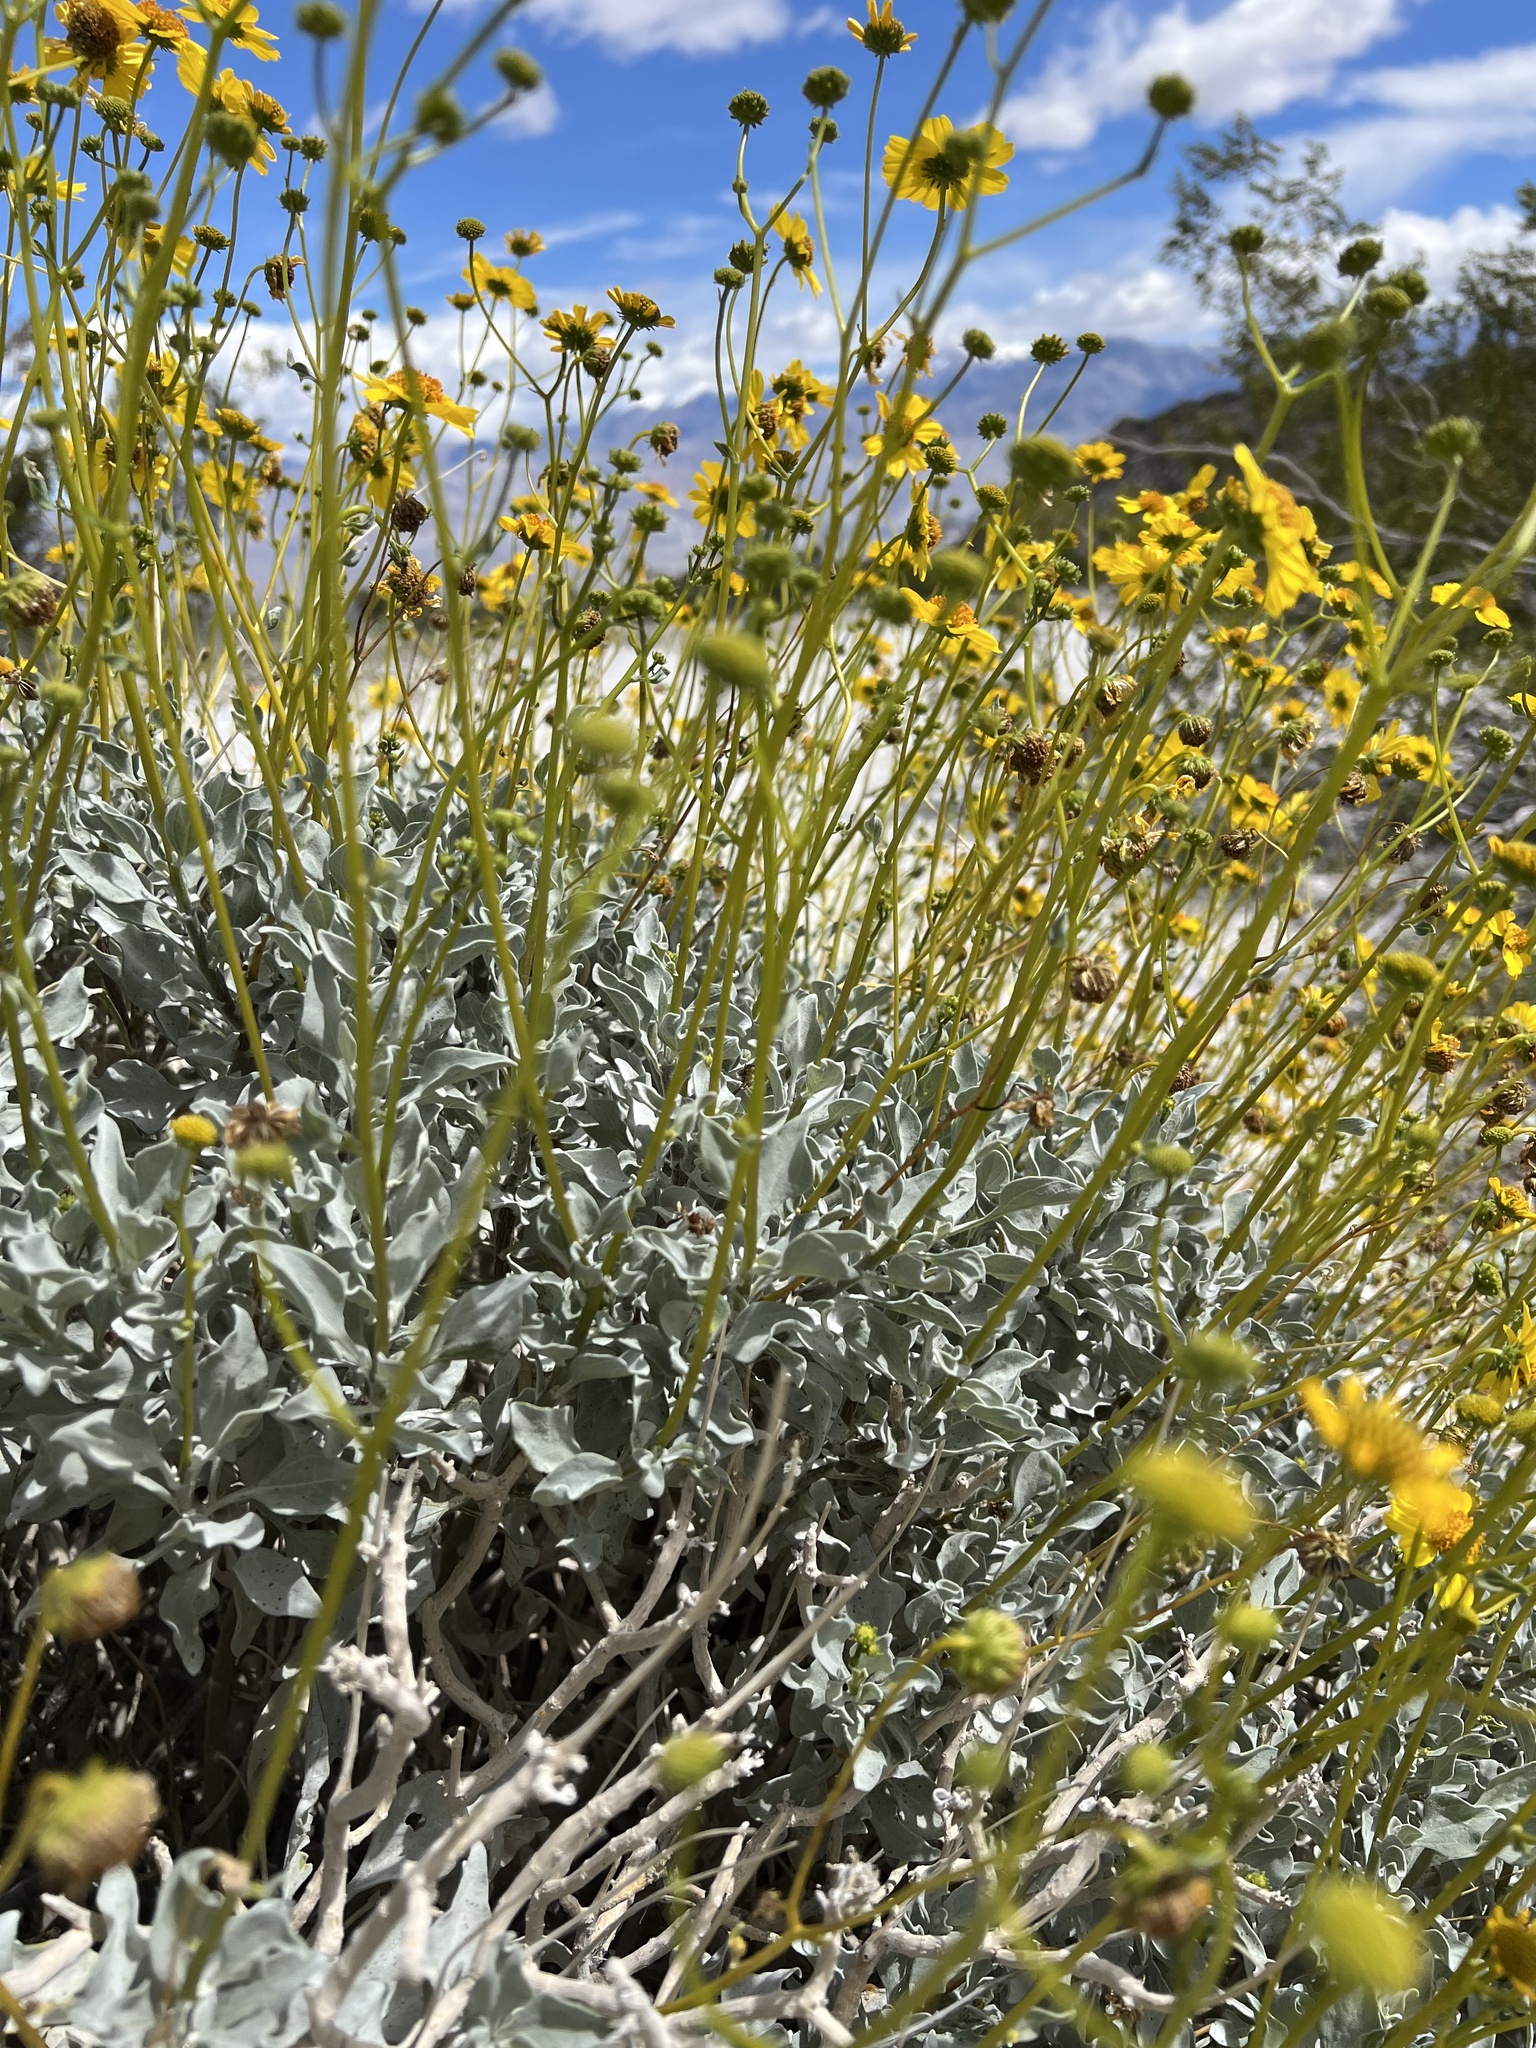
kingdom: Plantae
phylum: Tracheophyta
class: Magnoliopsida
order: Asterales
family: Asteraceae
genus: Encelia
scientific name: Encelia farinosa
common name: Brittlebush
